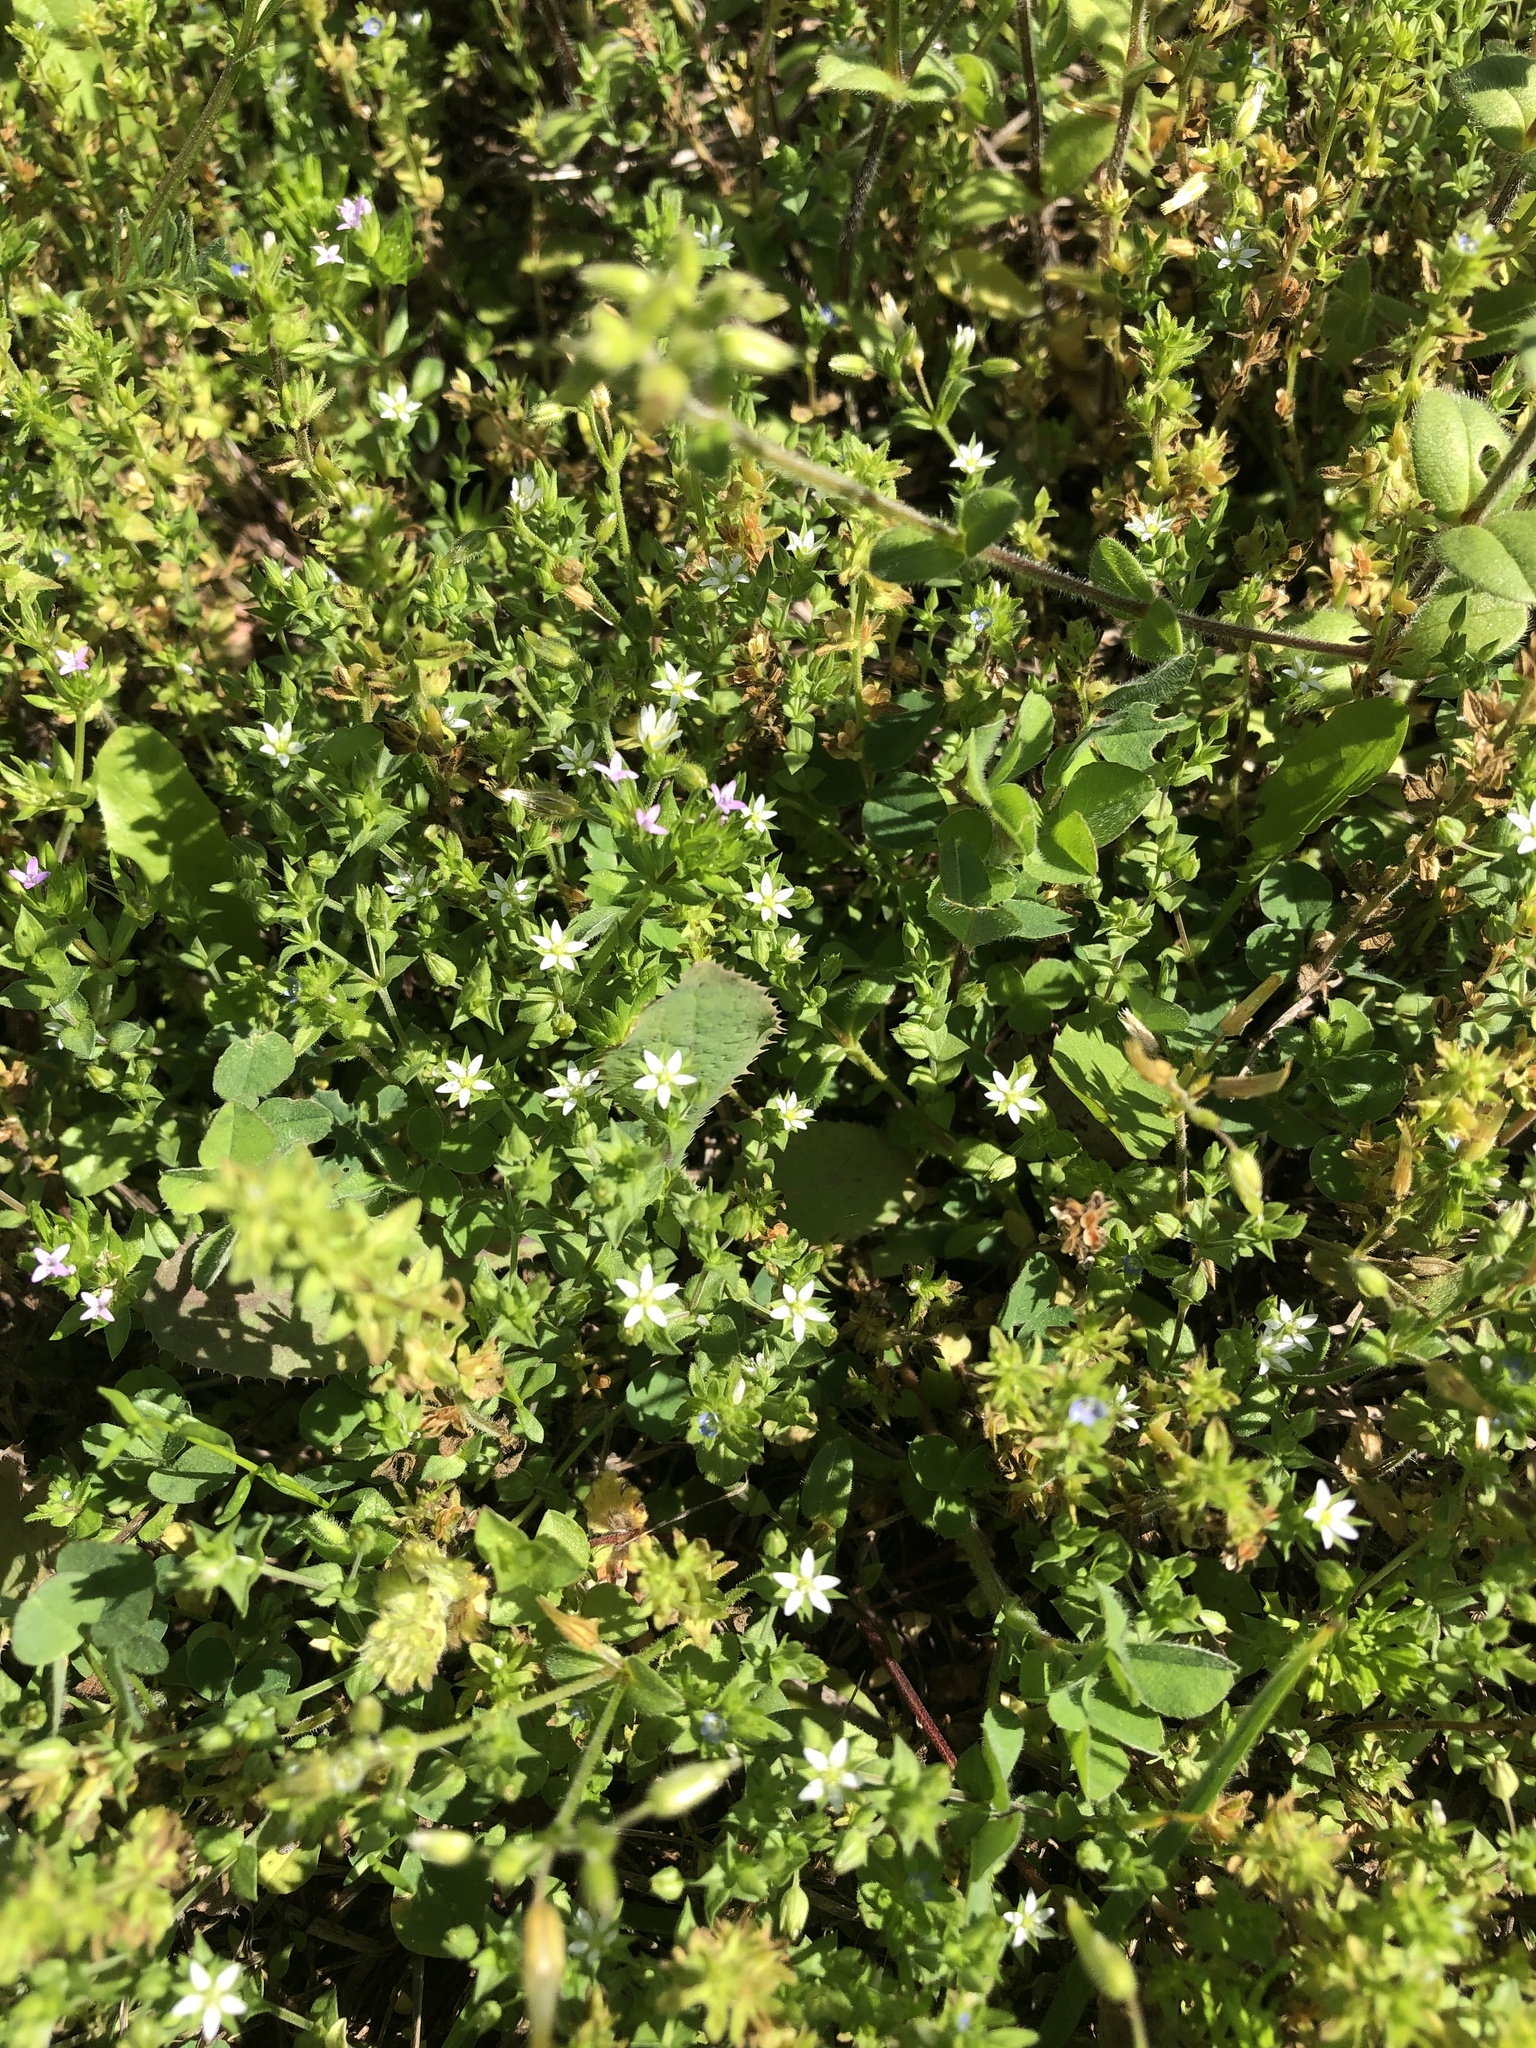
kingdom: Plantae
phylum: Tracheophyta
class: Magnoliopsida
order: Caryophyllales
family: Caryophyllaceae
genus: Arenaria
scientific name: Arenaria serpyllifolia
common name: Thyme-leaved sandwort
